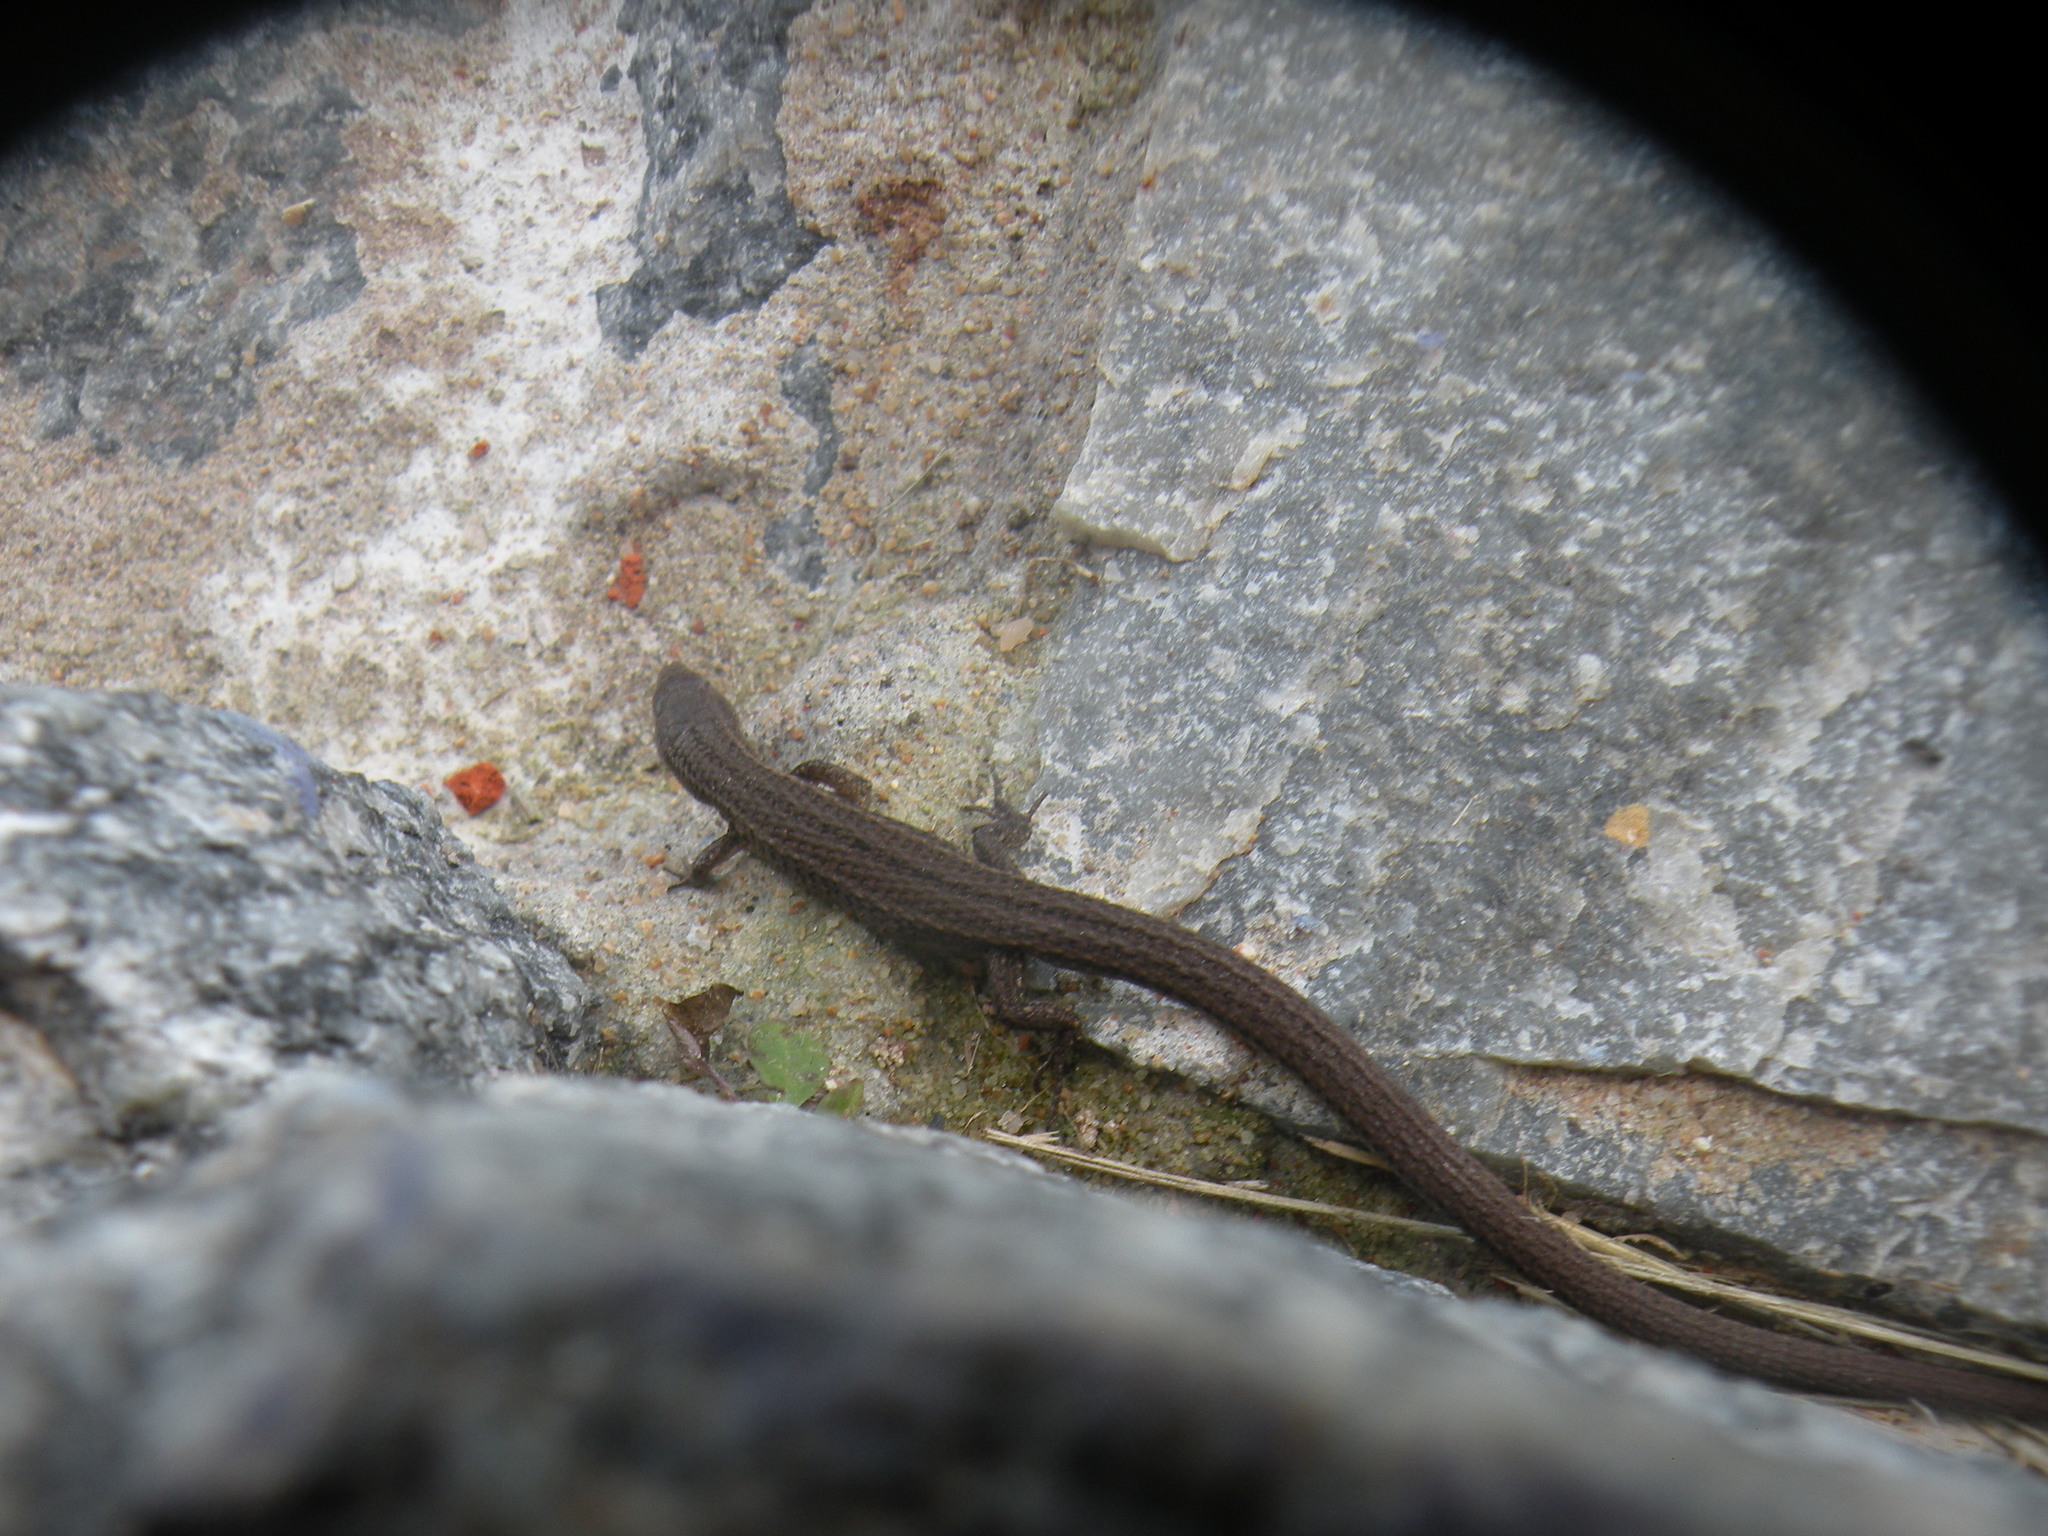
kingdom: Animalia
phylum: Chordata
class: Squamata
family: Gymnophthalmidae
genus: Cercosaura
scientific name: Cercosaura schreibersii
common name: Schreibers' many-fingered teiid
